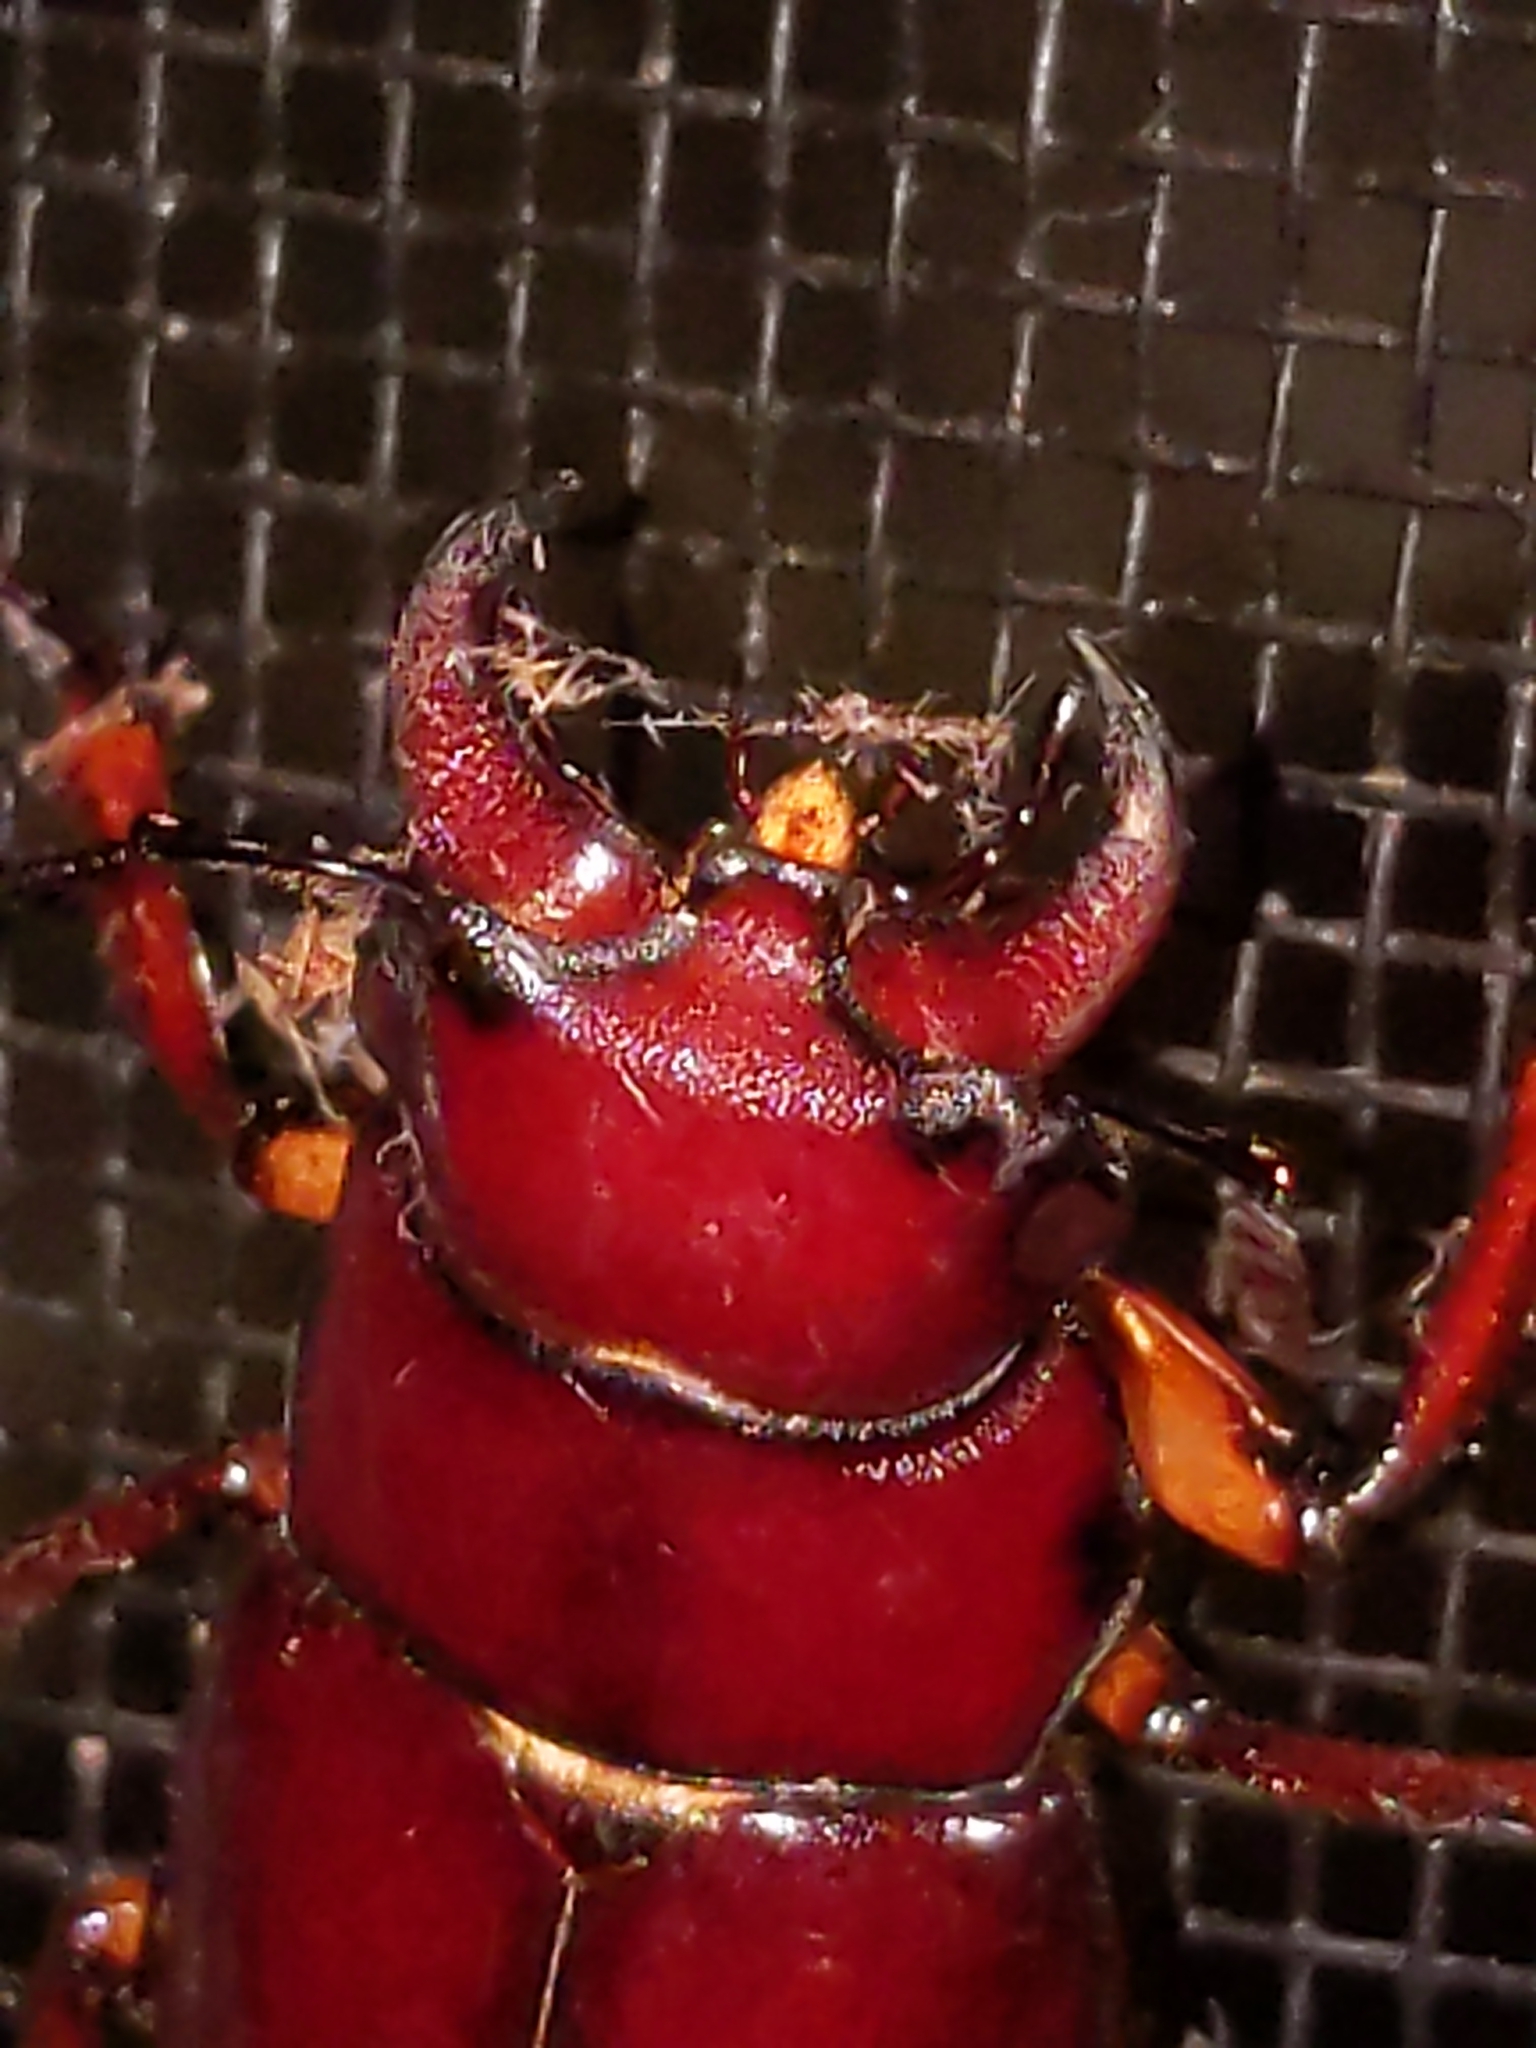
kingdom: Animalia
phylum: Arthropoda
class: Insecta
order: Coleoptera
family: Lucanidae
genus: Lucanus
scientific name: Lucanus capreolus
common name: Stag beetle
